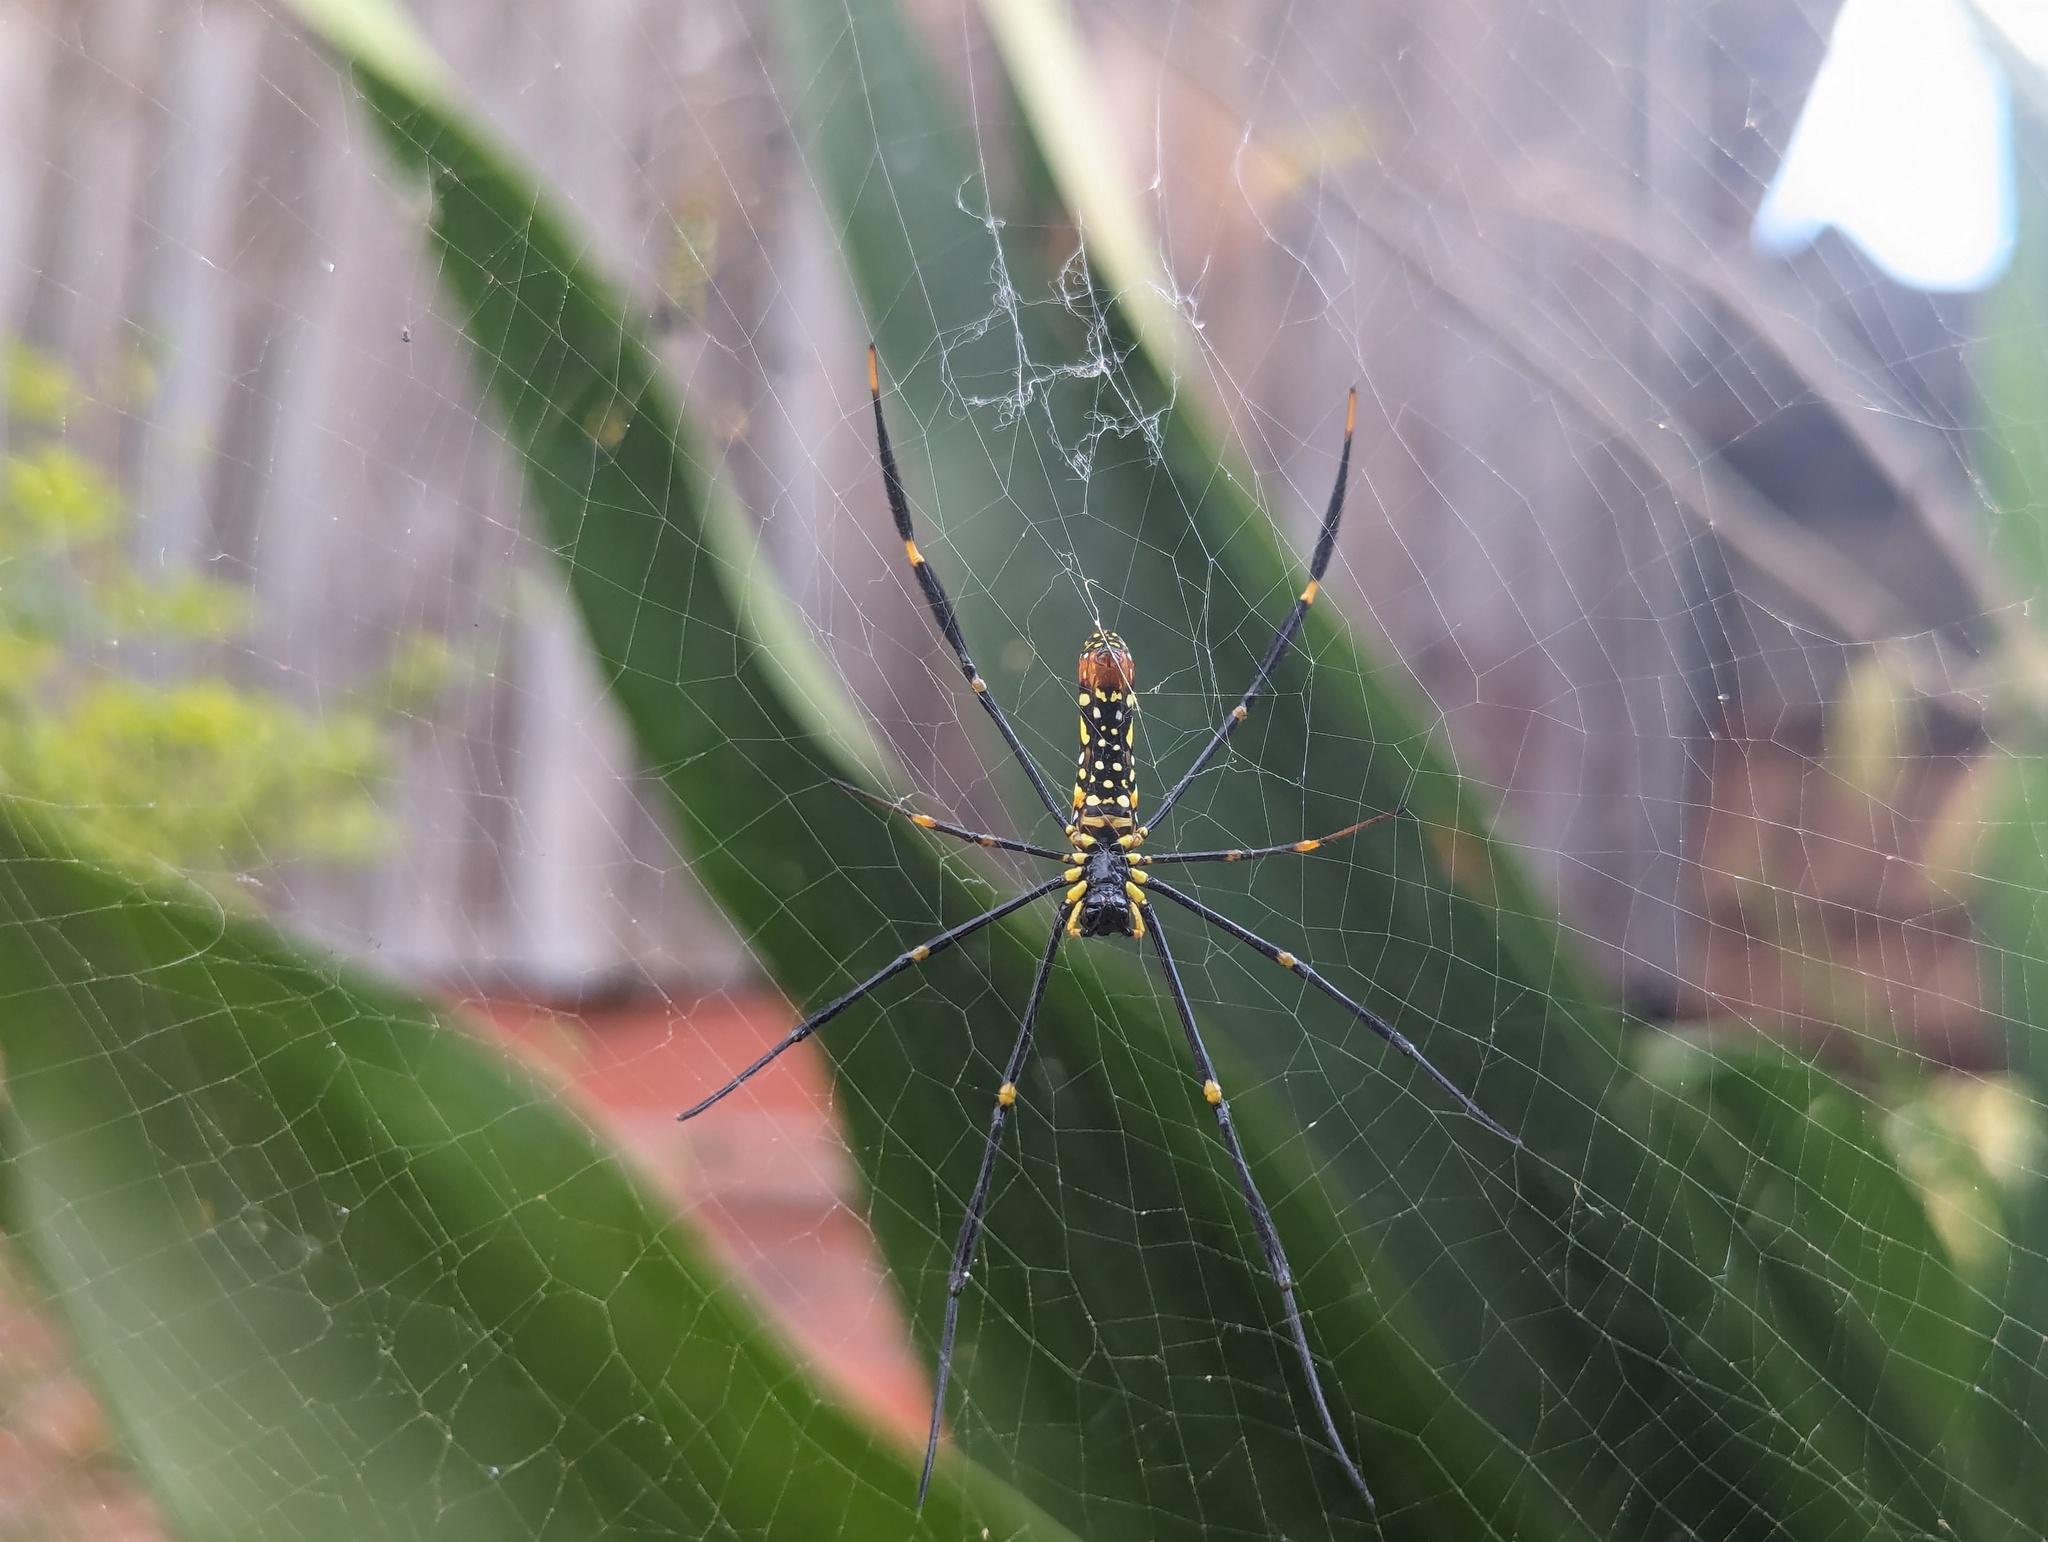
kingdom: Animalia
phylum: Arthropoda
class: Arachnida
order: Araneae
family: Araneidae
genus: Nephila
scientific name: Nephila pilipes
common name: Giant golden orb weaver
